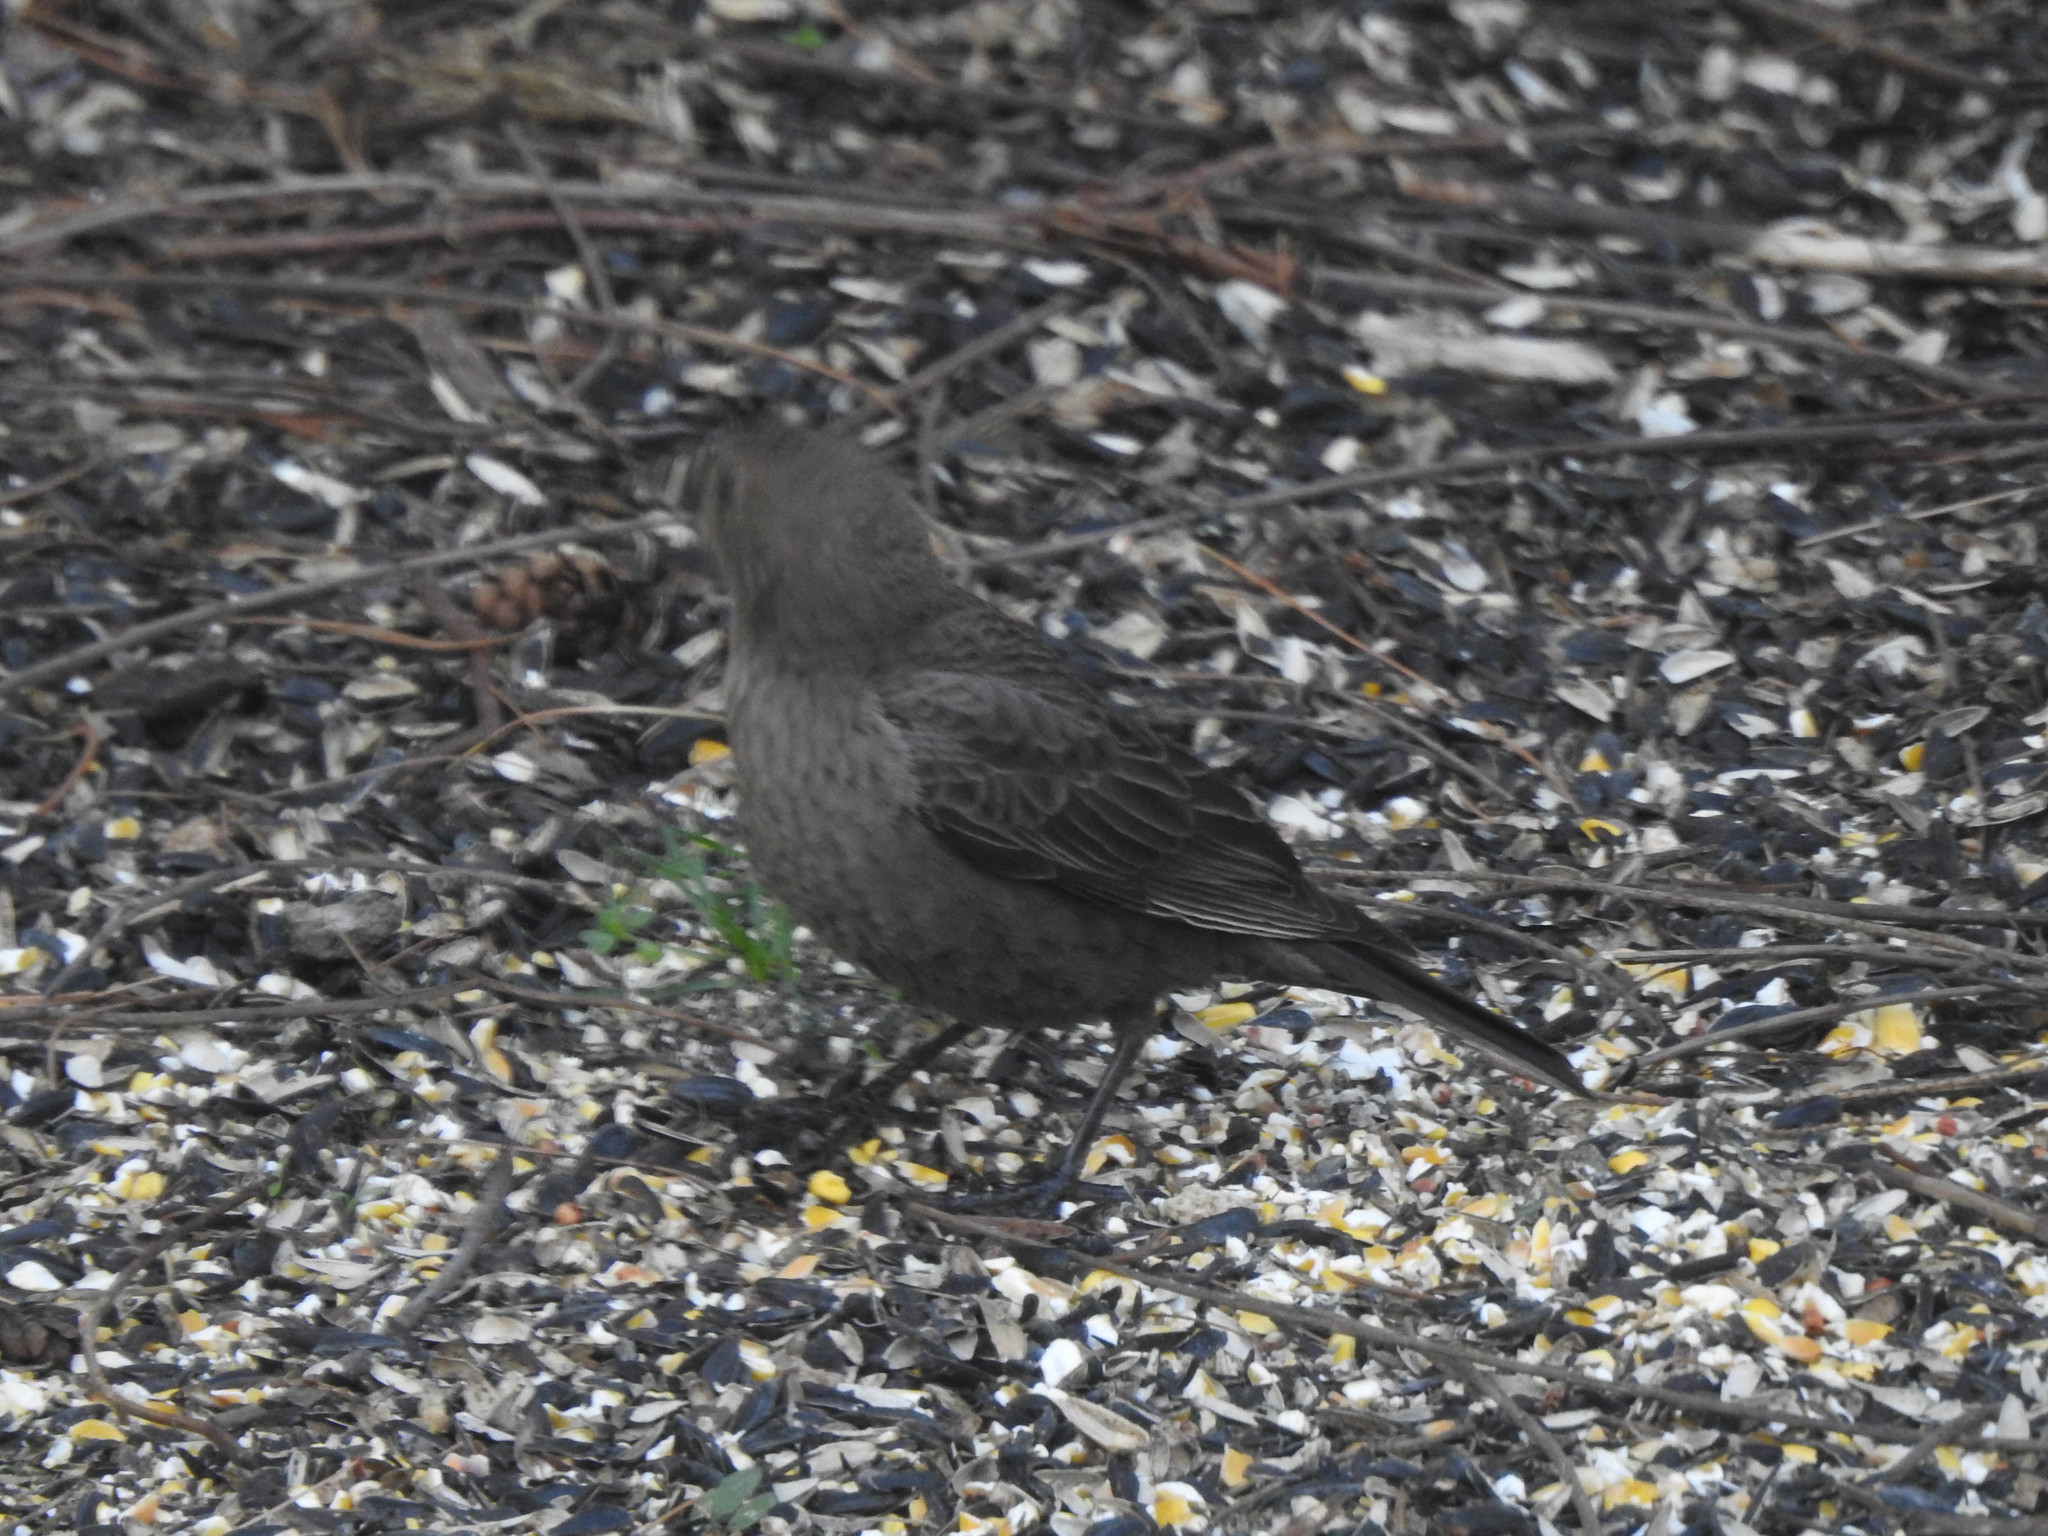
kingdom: Animalia
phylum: Chordata
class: Aves
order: Passeriformes
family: Icteridae
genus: Molothrus
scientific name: Molothrus ater
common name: Brown-headed cowbird
